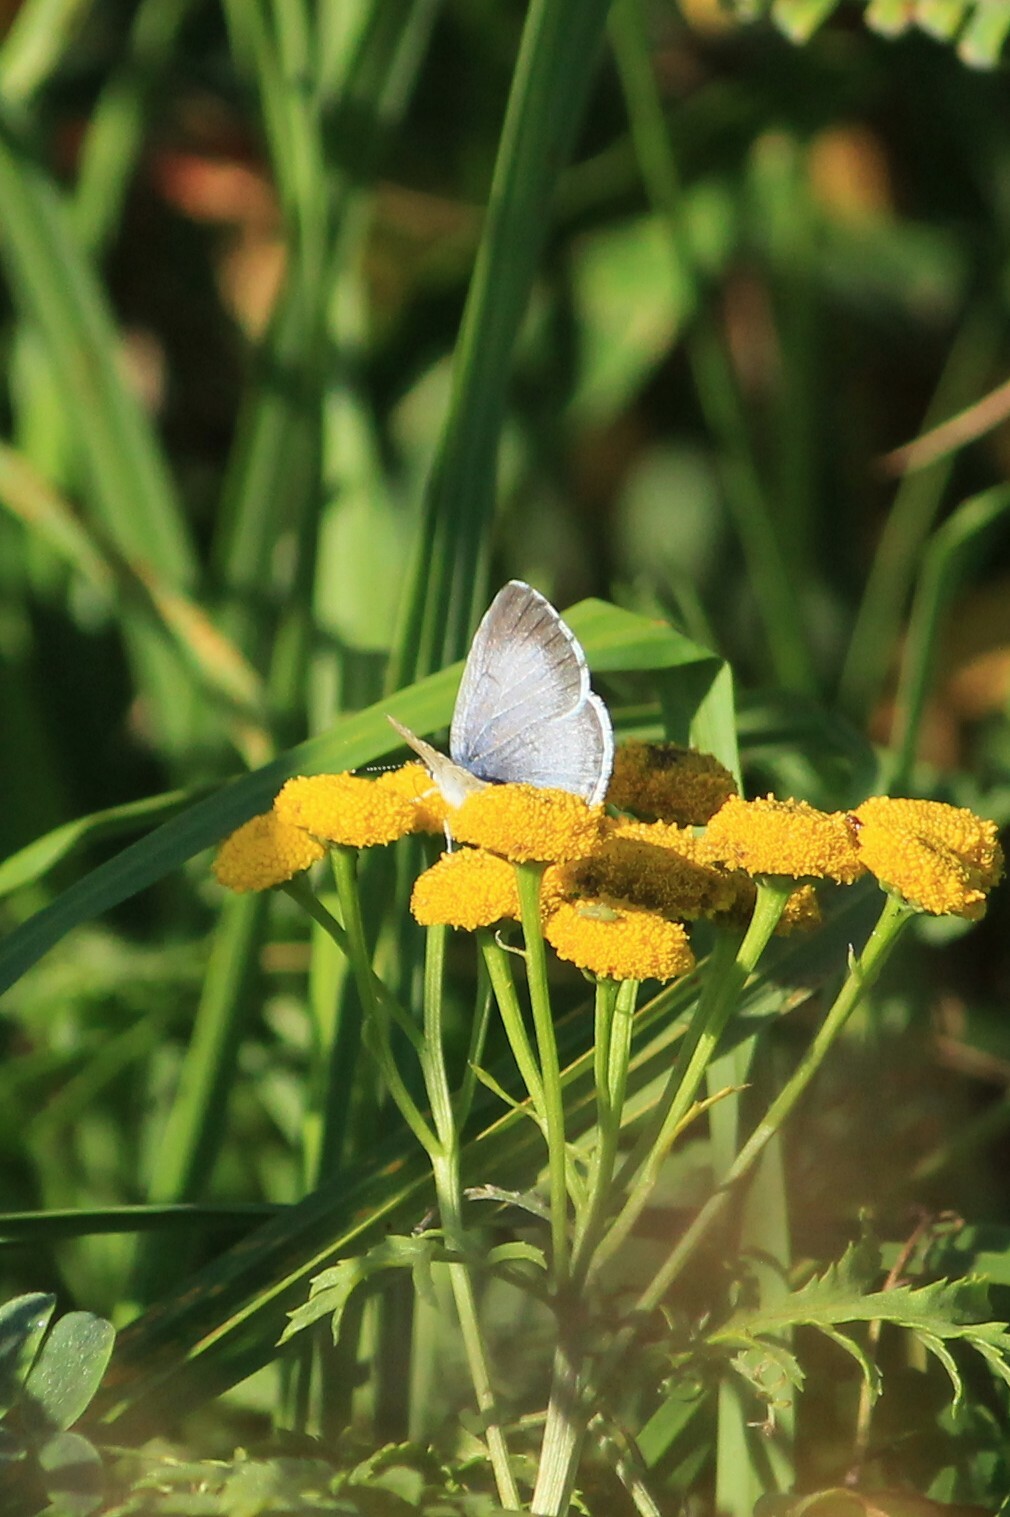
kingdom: Animalia
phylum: Arthropoda
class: Insecta
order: Lepidoptera
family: Lycaenidae
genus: Celastrina
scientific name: Celastrina argiolus
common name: Holly blue
